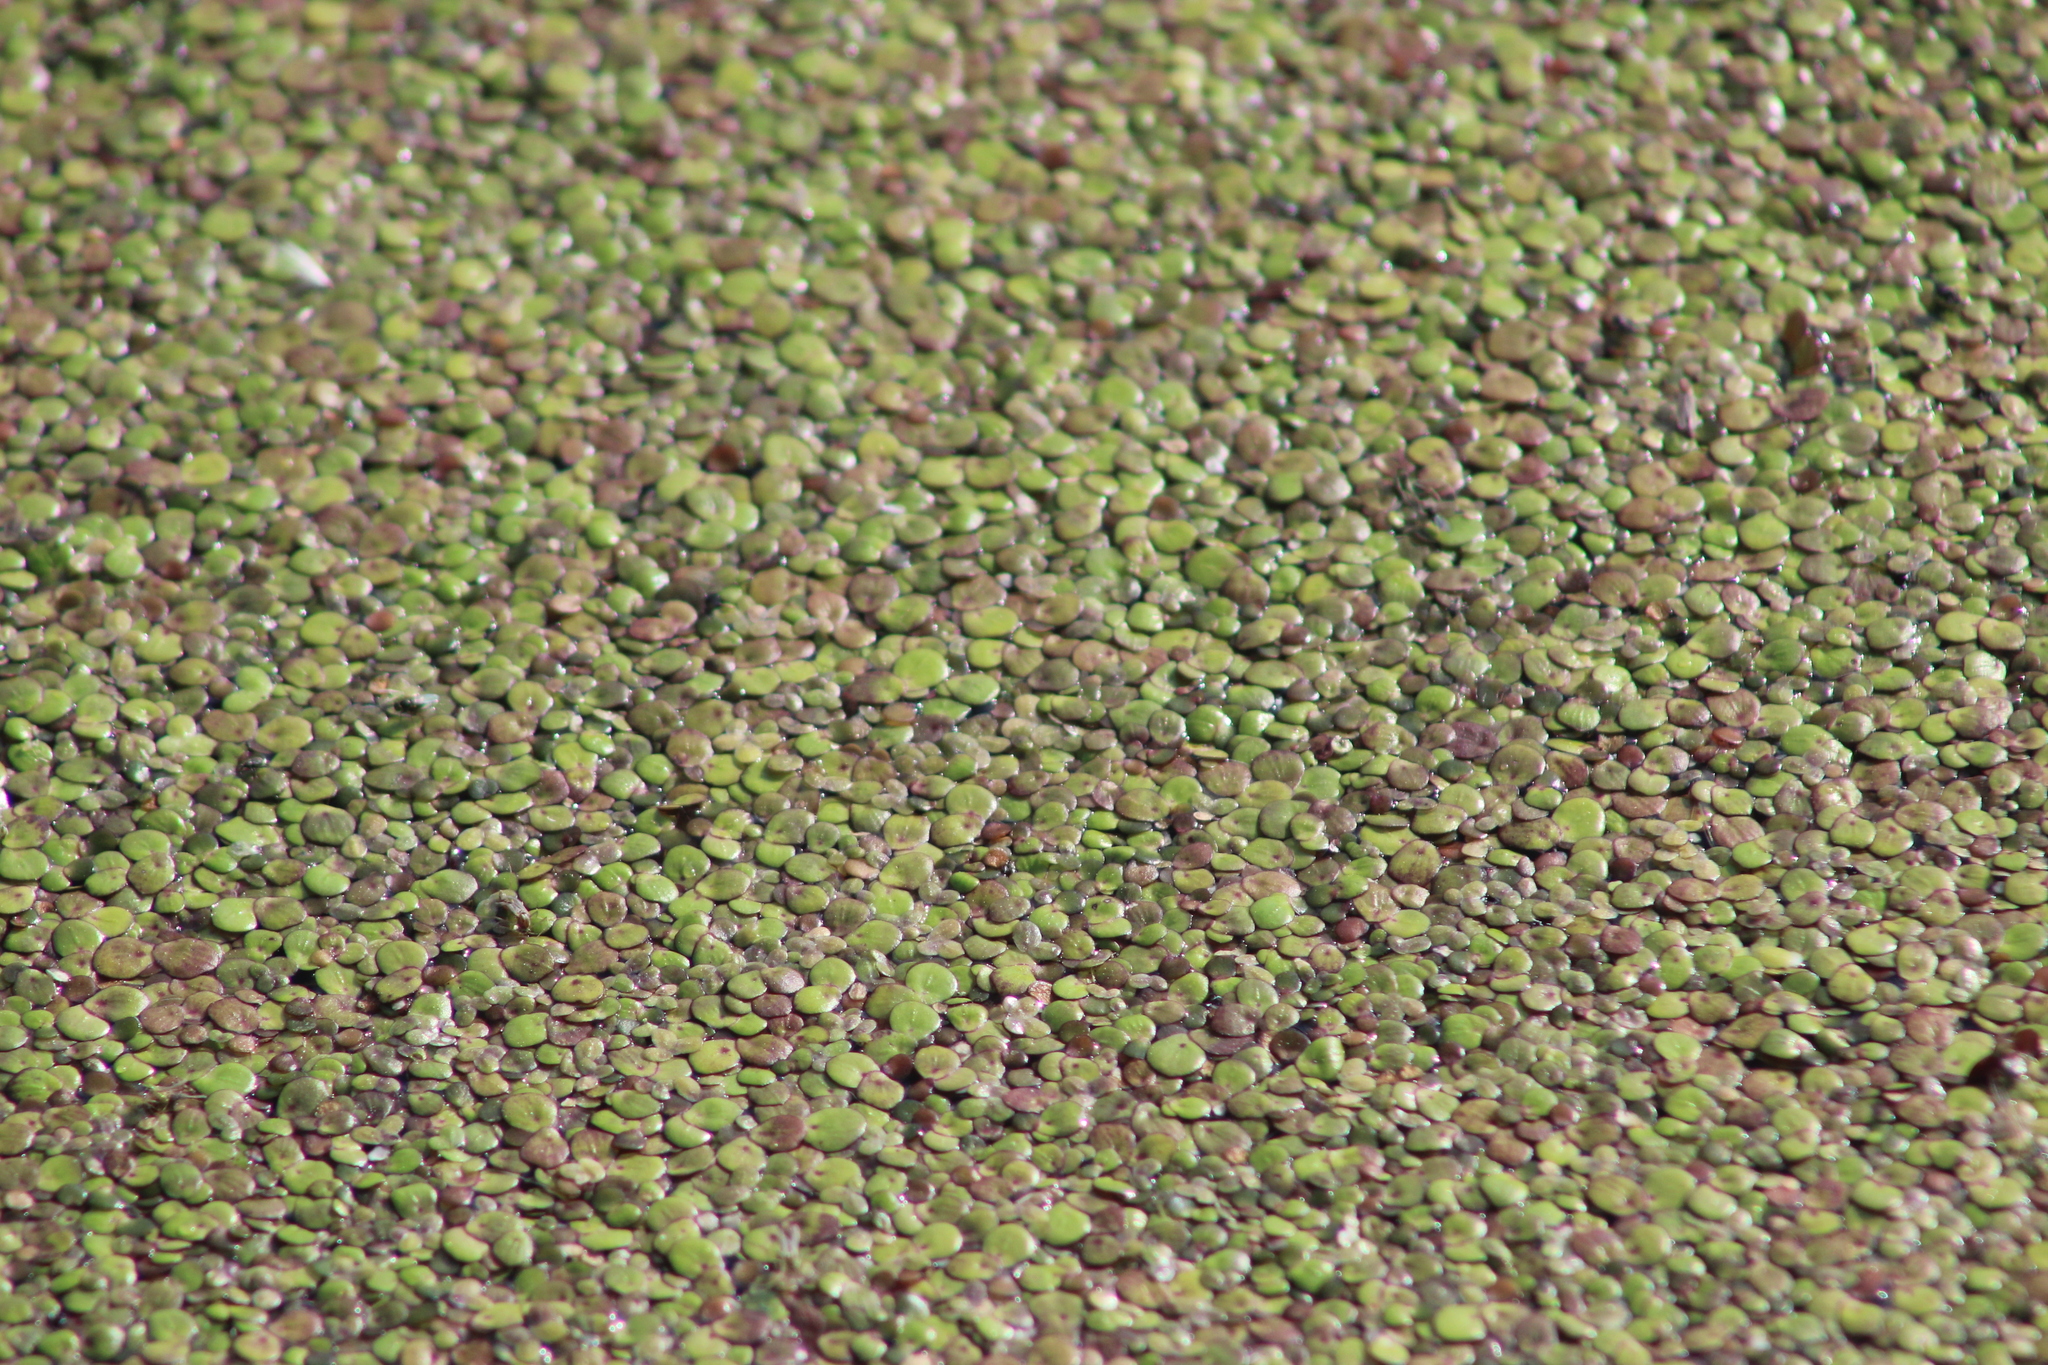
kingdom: Plantae
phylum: Tracheophyta
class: Liliopsida
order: Alismatales
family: Araceae
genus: Spirodela
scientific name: Spirodela polyrhiza
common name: Great duckweed
